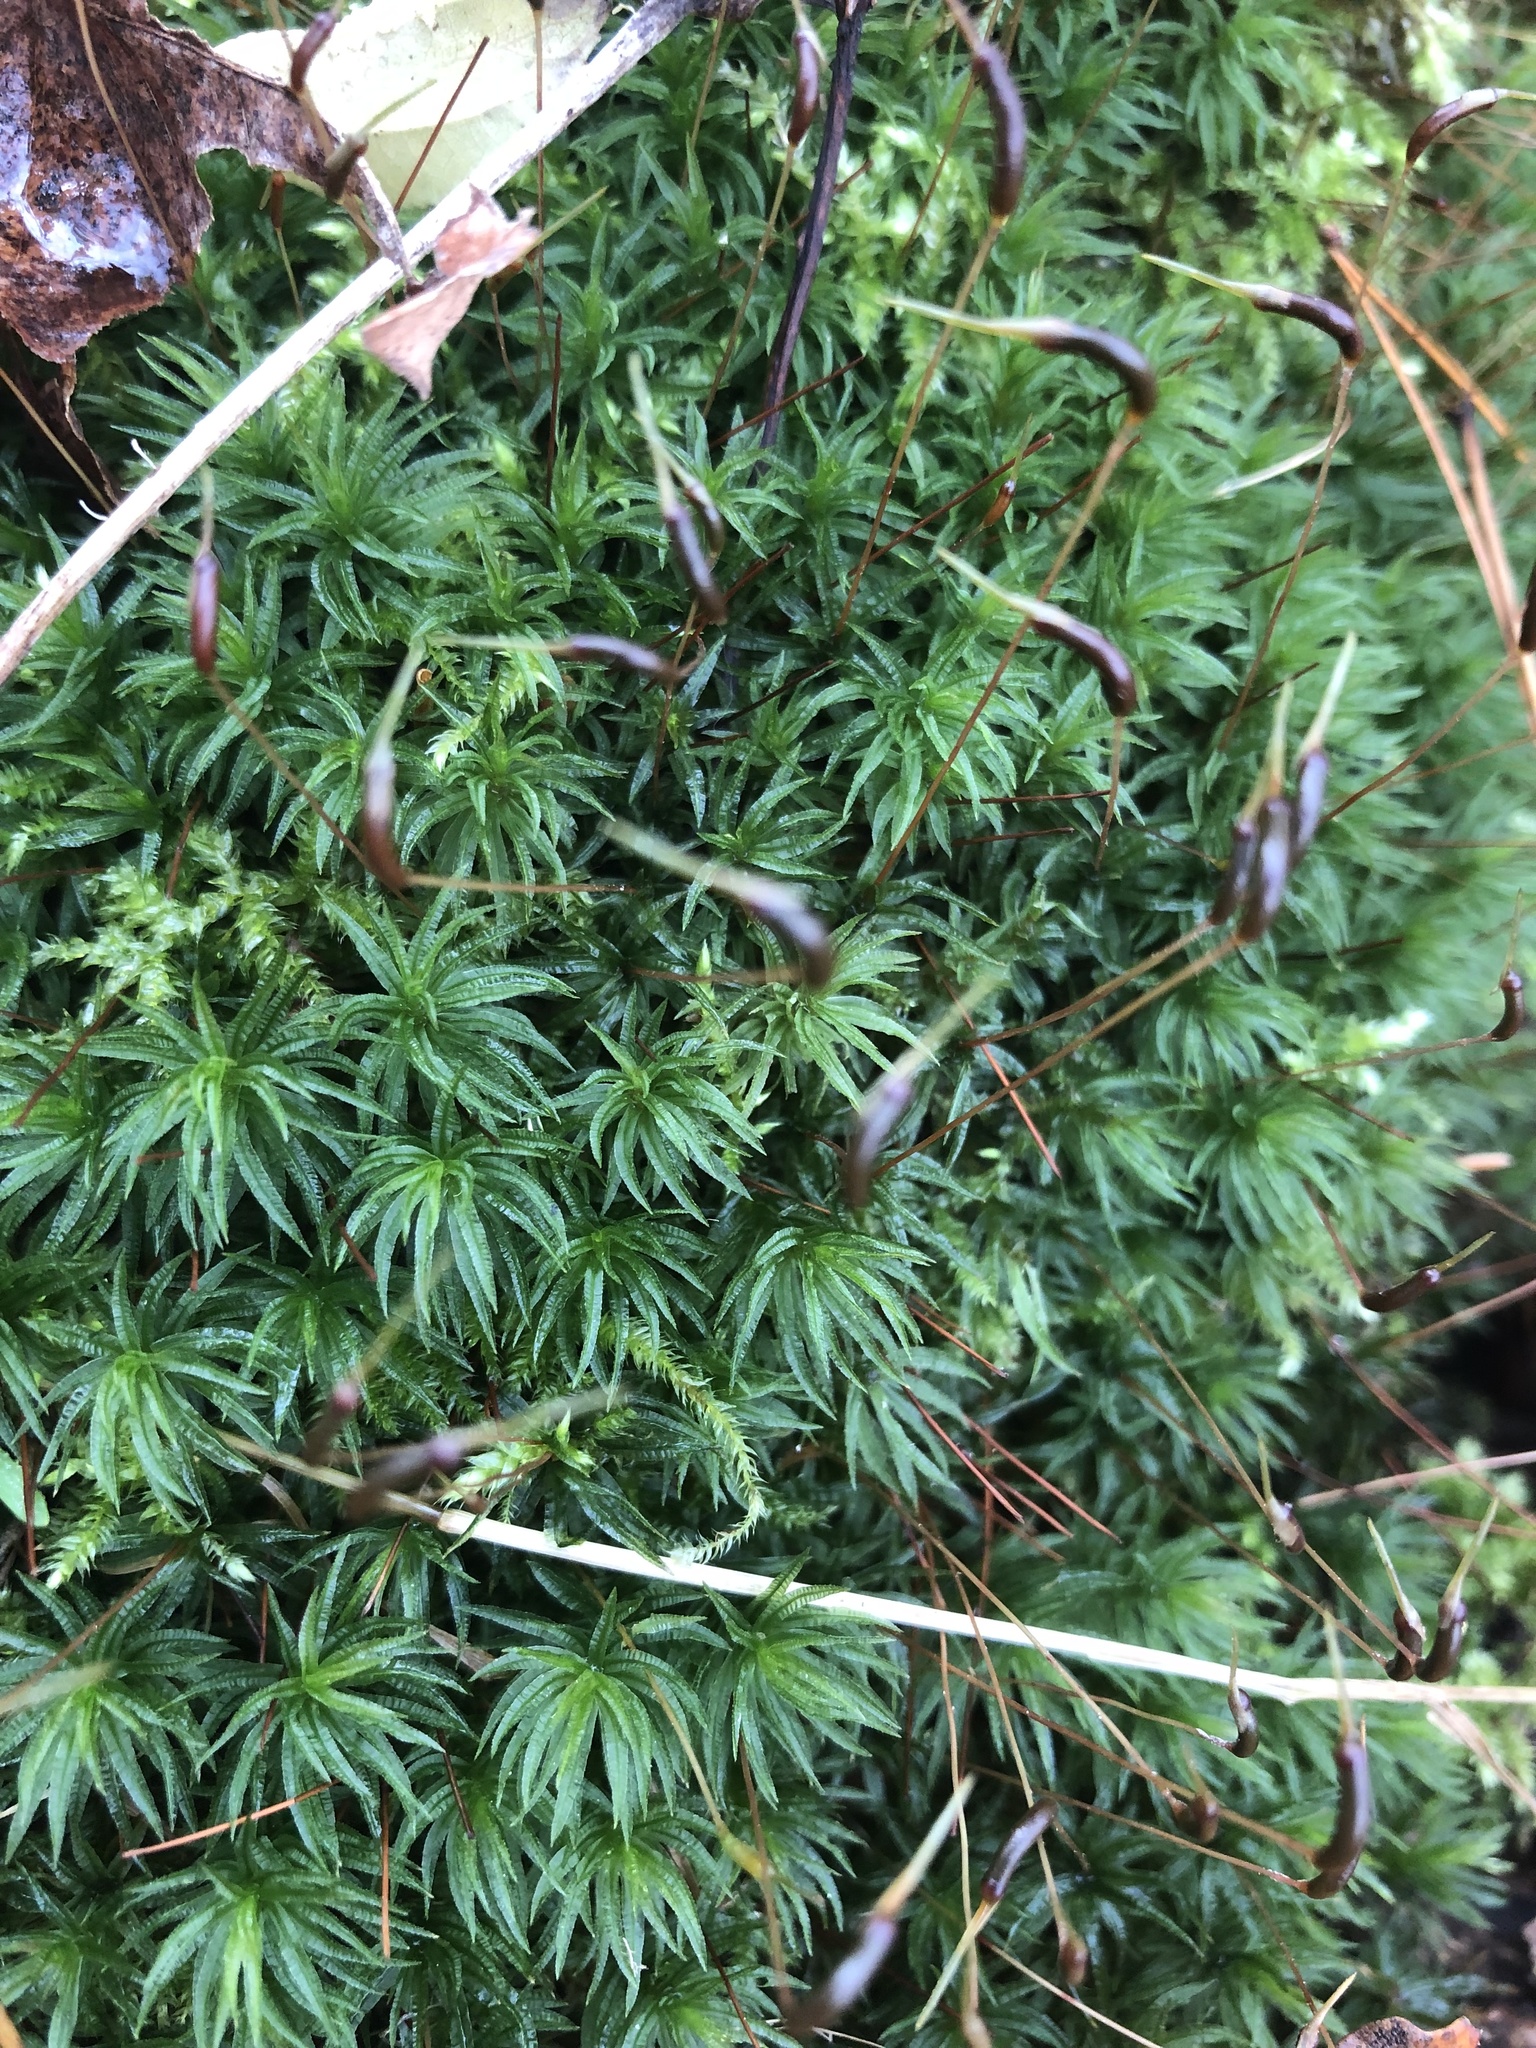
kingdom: Plantae
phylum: Bryophyta
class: Polytrichopsida
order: Polytrichales
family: Polytrichaceae
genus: Atrichum
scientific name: Atrichum undulatum
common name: Common smoothcap
